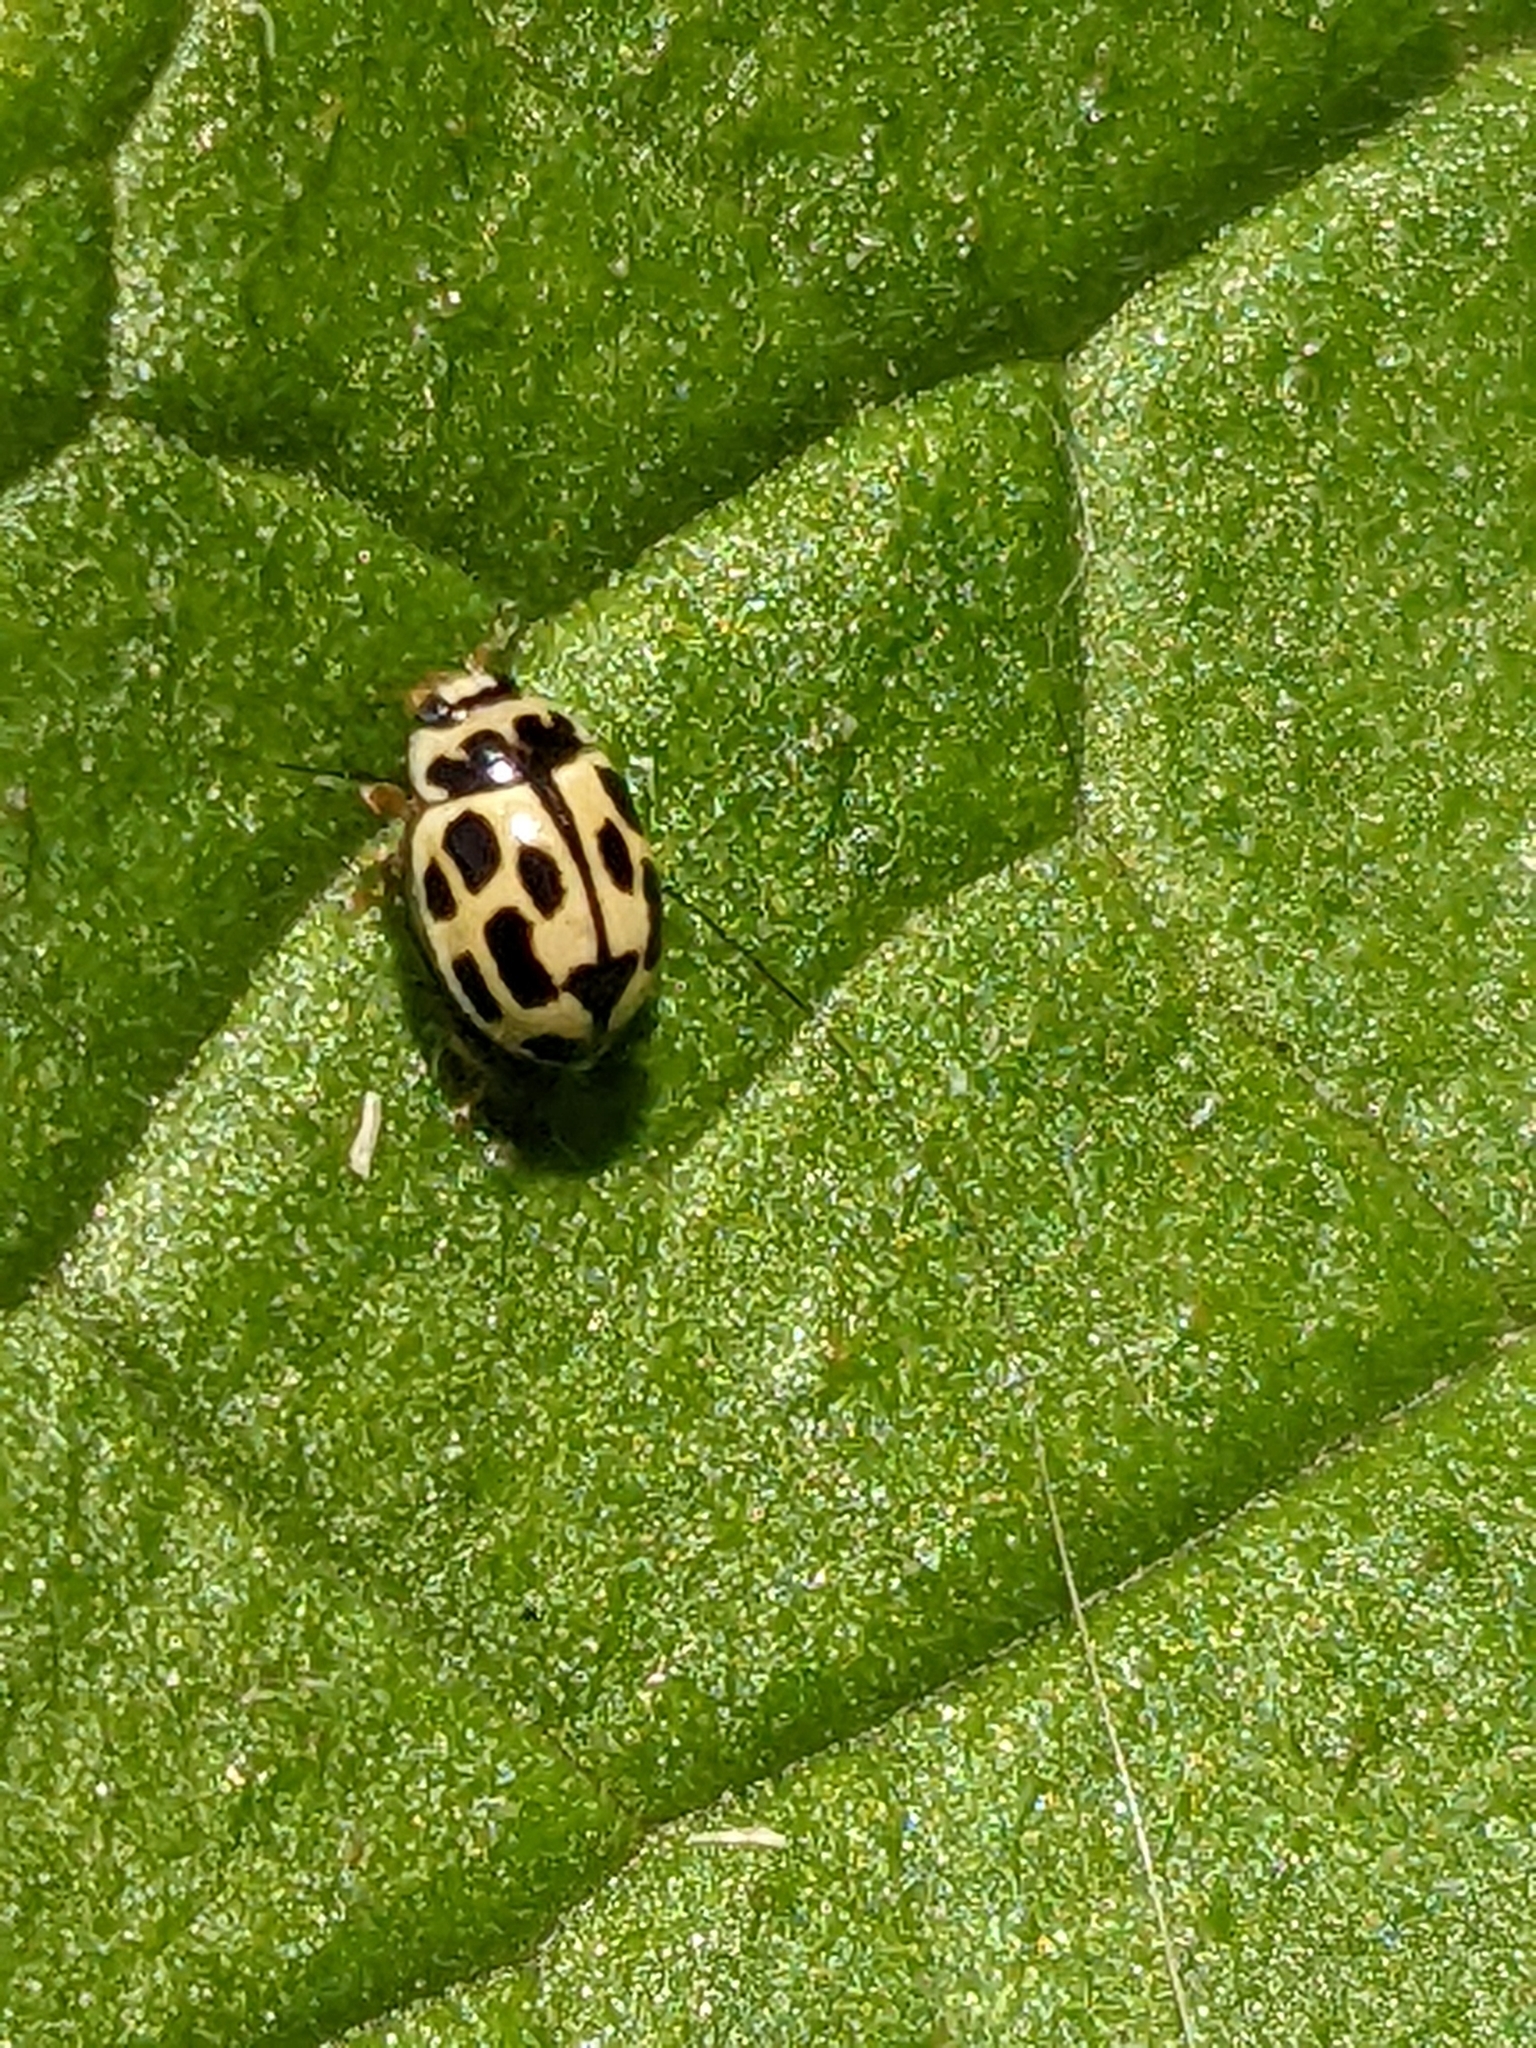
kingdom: Animalia
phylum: Arthropoda
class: Insecta
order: Coleoptera
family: Coccinellidae
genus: Propylaea
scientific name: Propylaea quatuordecimpunctata
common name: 14-spotted ladybird beetle
